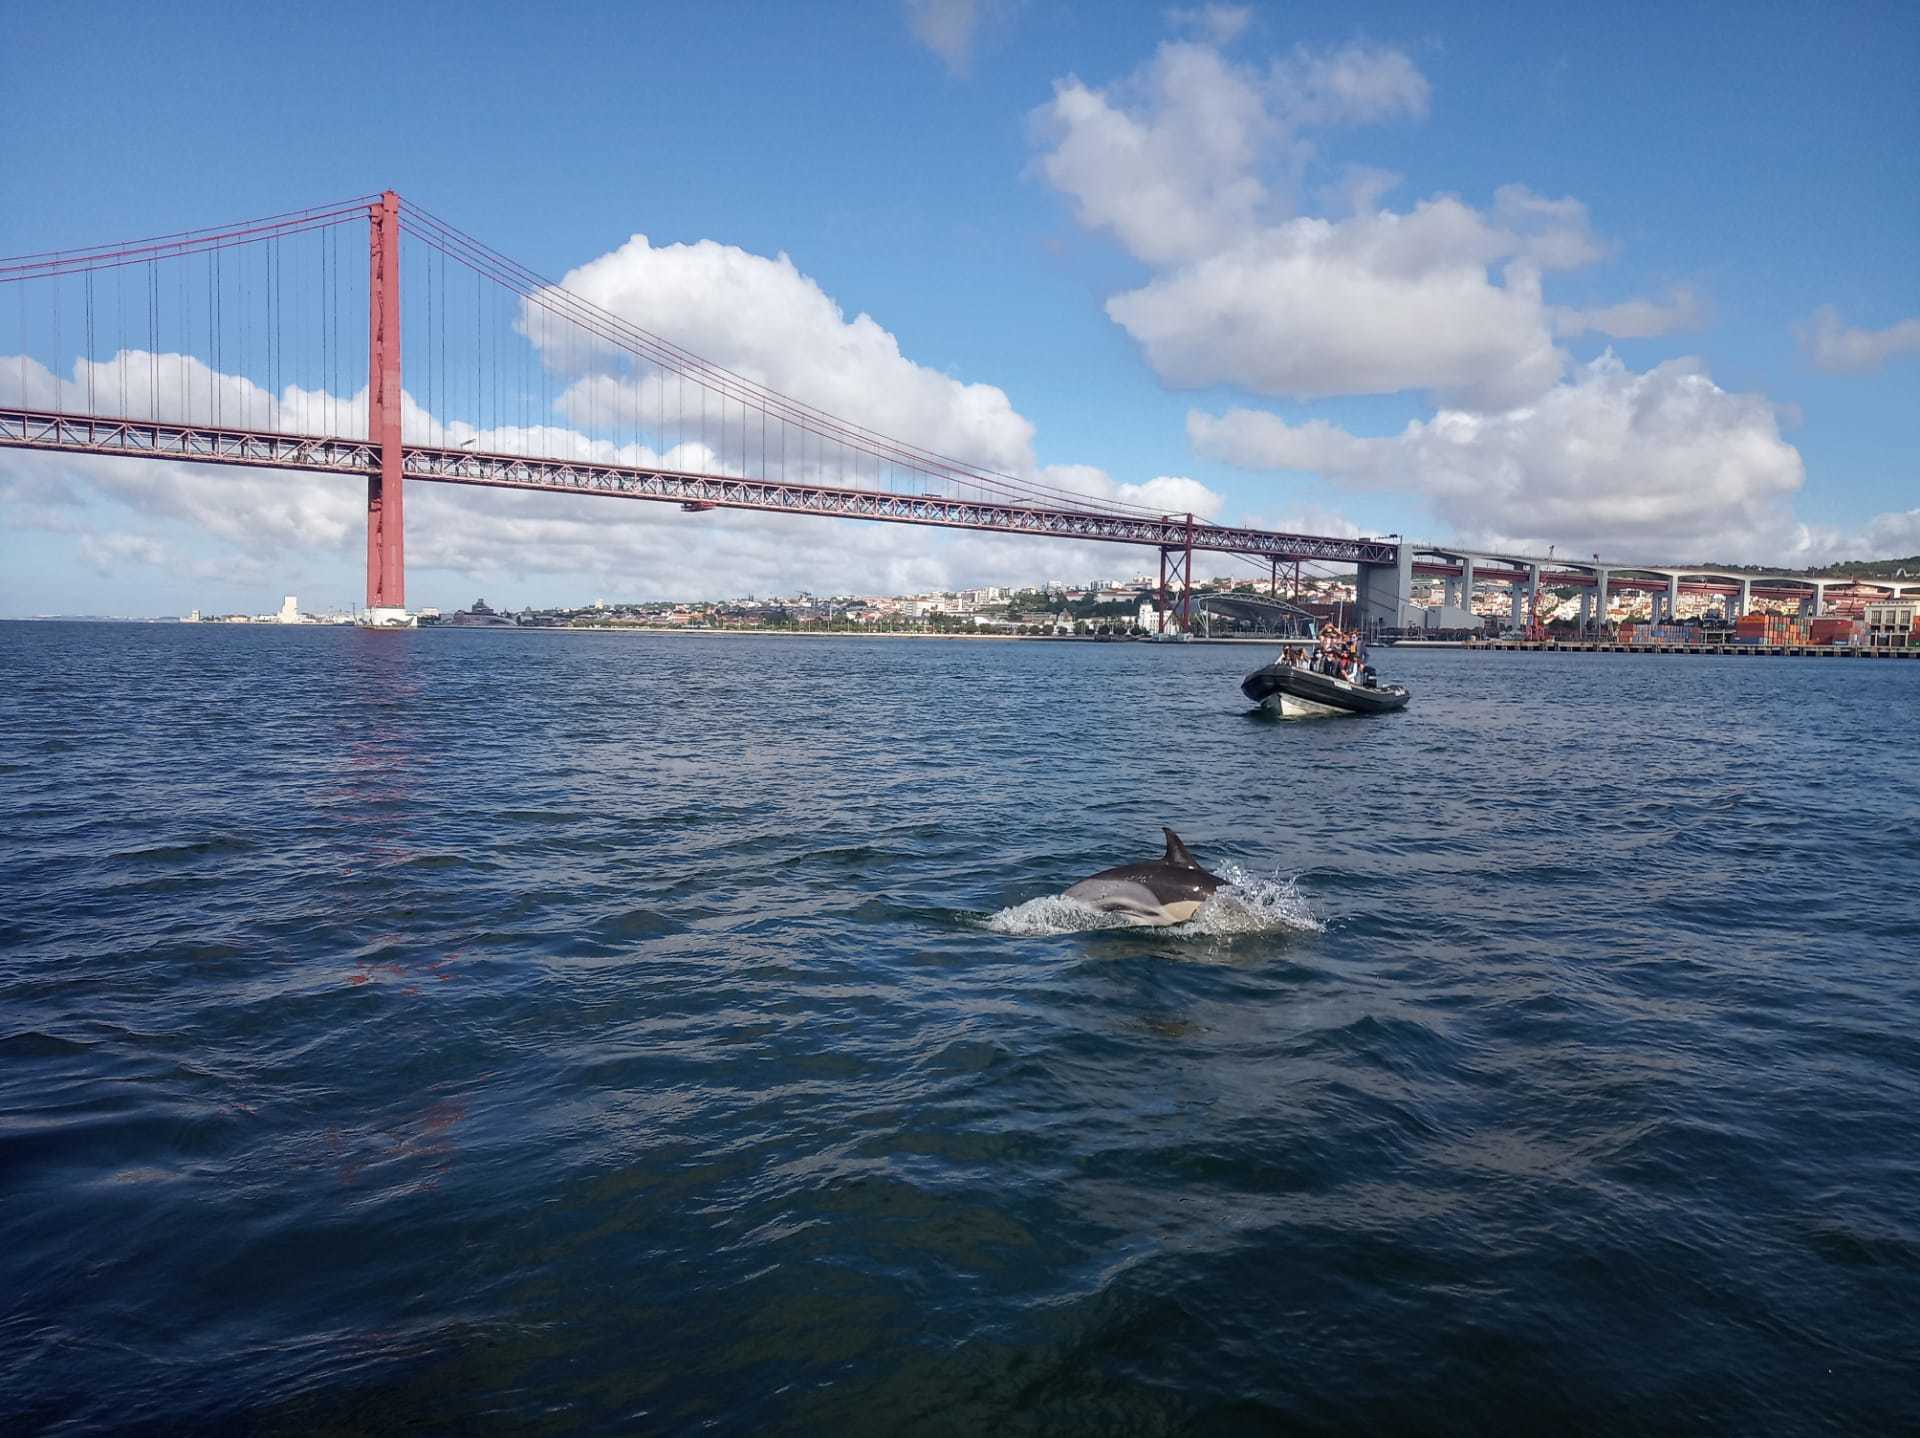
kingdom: Animalia
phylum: Chordata
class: Mammalia
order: Cetacea
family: Delphinidae
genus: Delphinus
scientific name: Delphinus delphis
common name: Common dolphin
